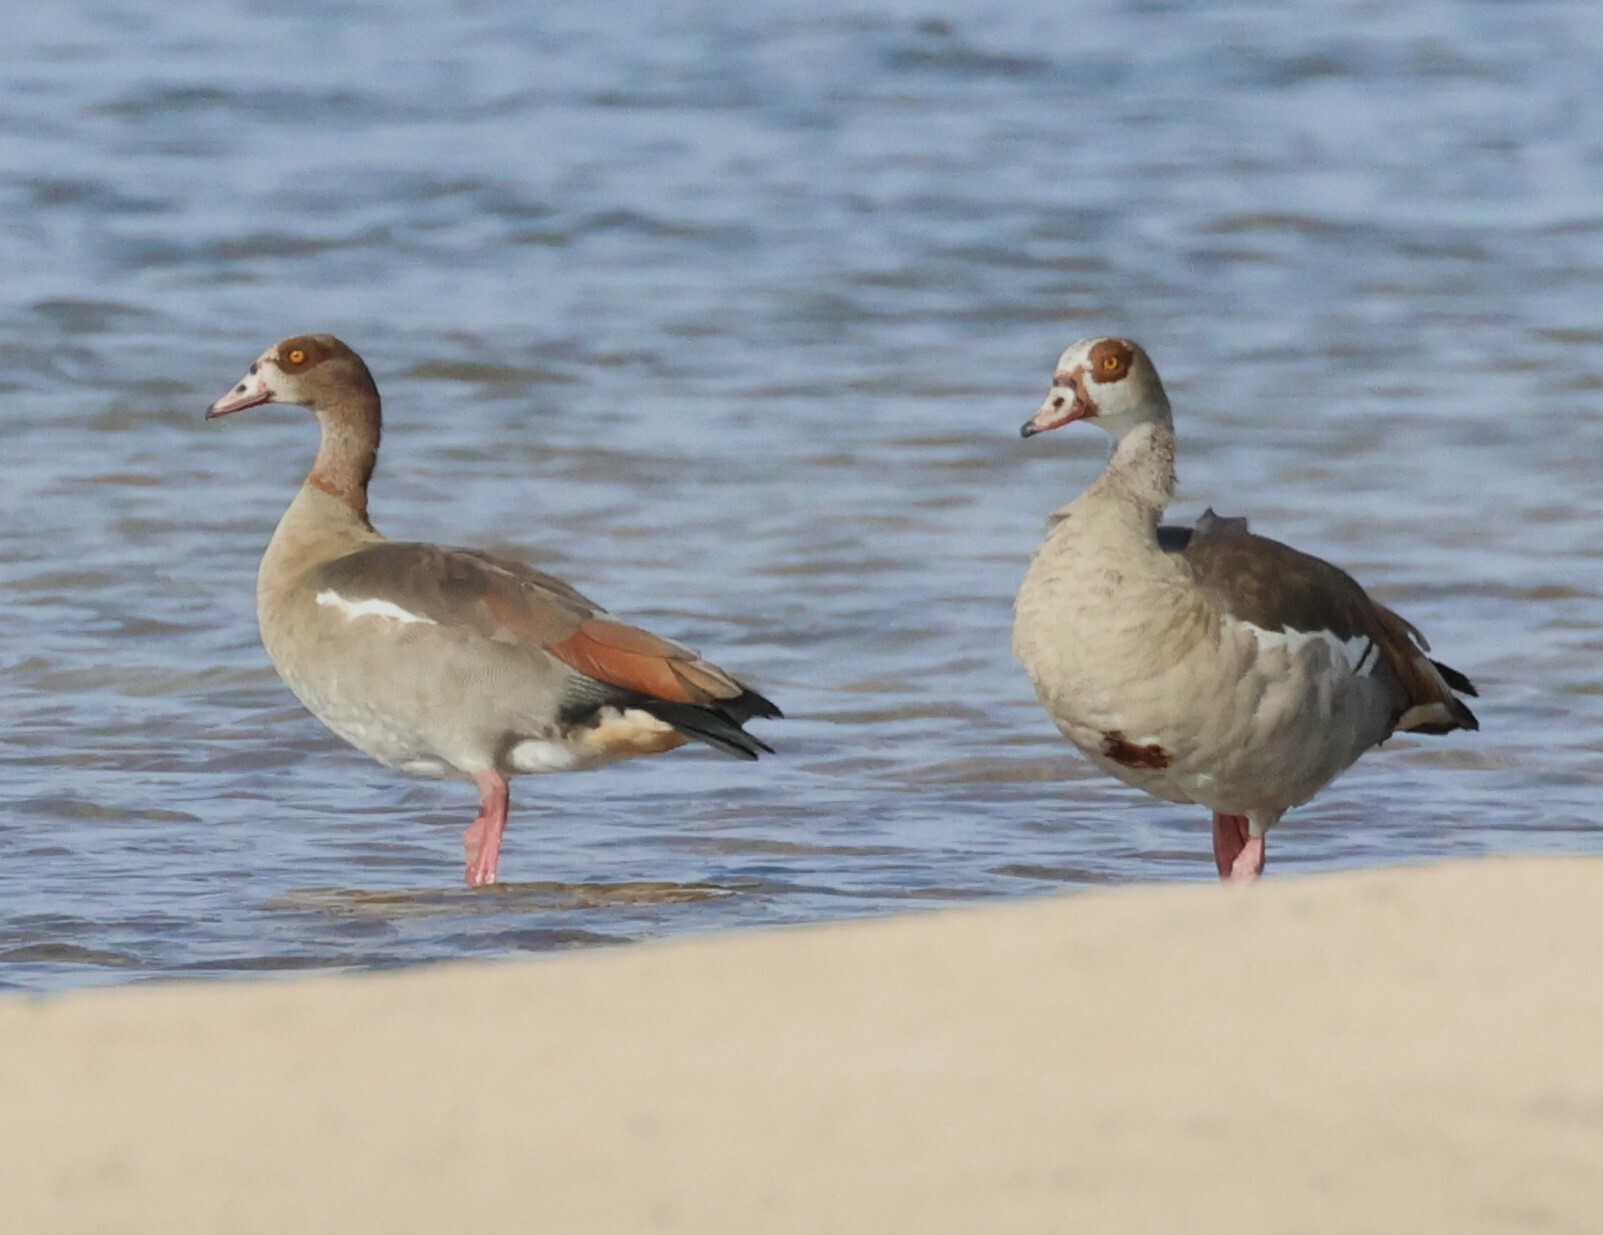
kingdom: Animalia
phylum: Chordata
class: Aves
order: Anseriformes
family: Anatidae
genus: Alopochen
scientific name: Alopochen aegyptiaca
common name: Egyptian goose
